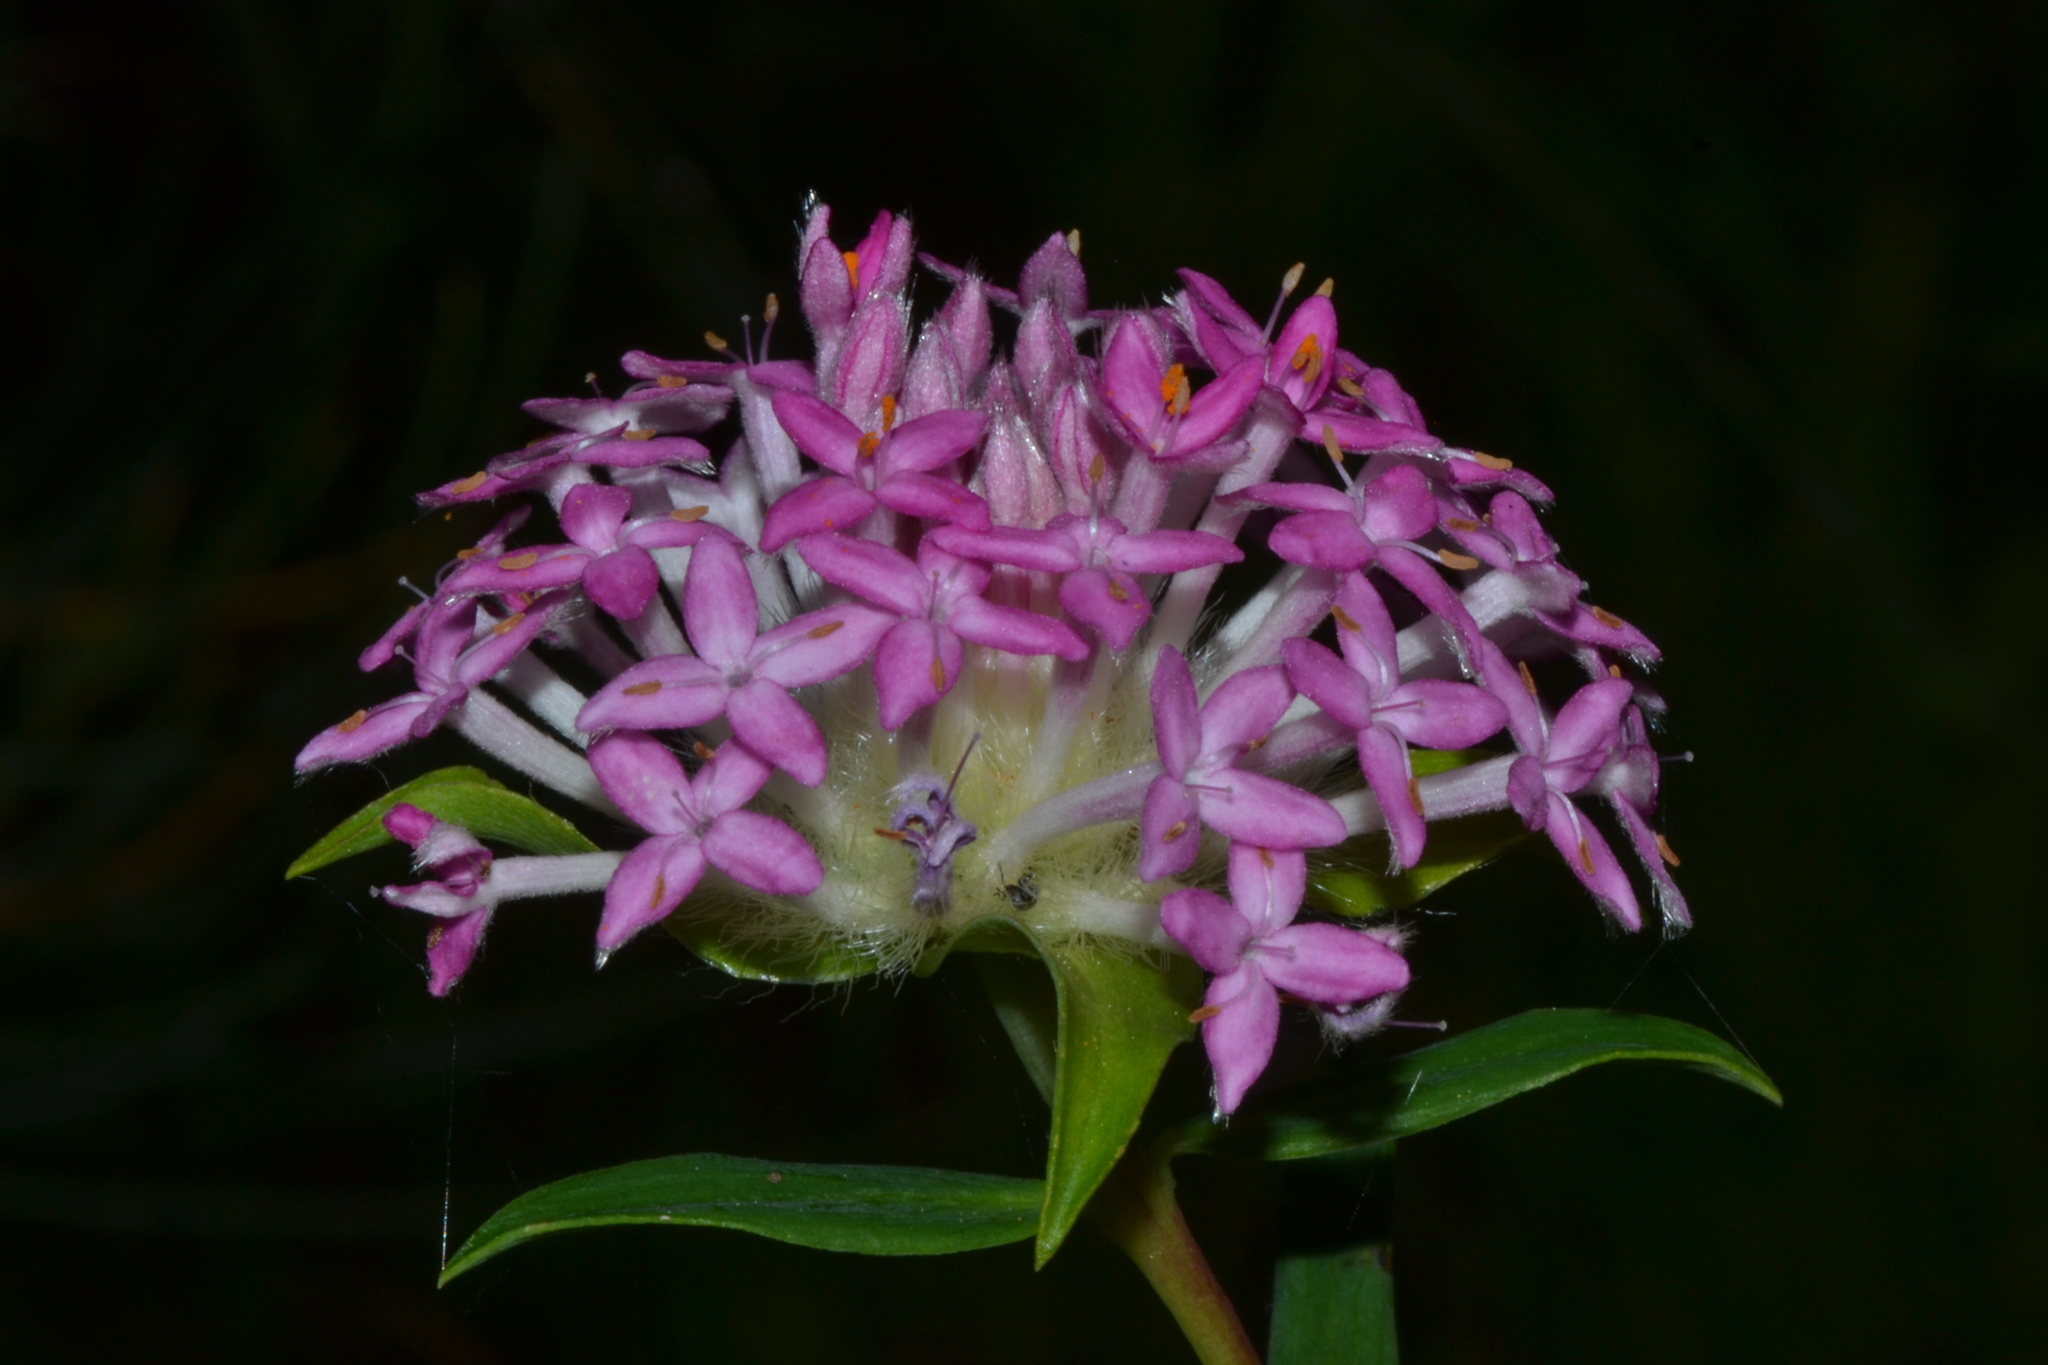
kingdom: Plantae
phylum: Tracheophyta
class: Magnoliopsida
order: Malvales
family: Thymelaeaceae
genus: Pimelea
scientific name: Pimelea rosea
